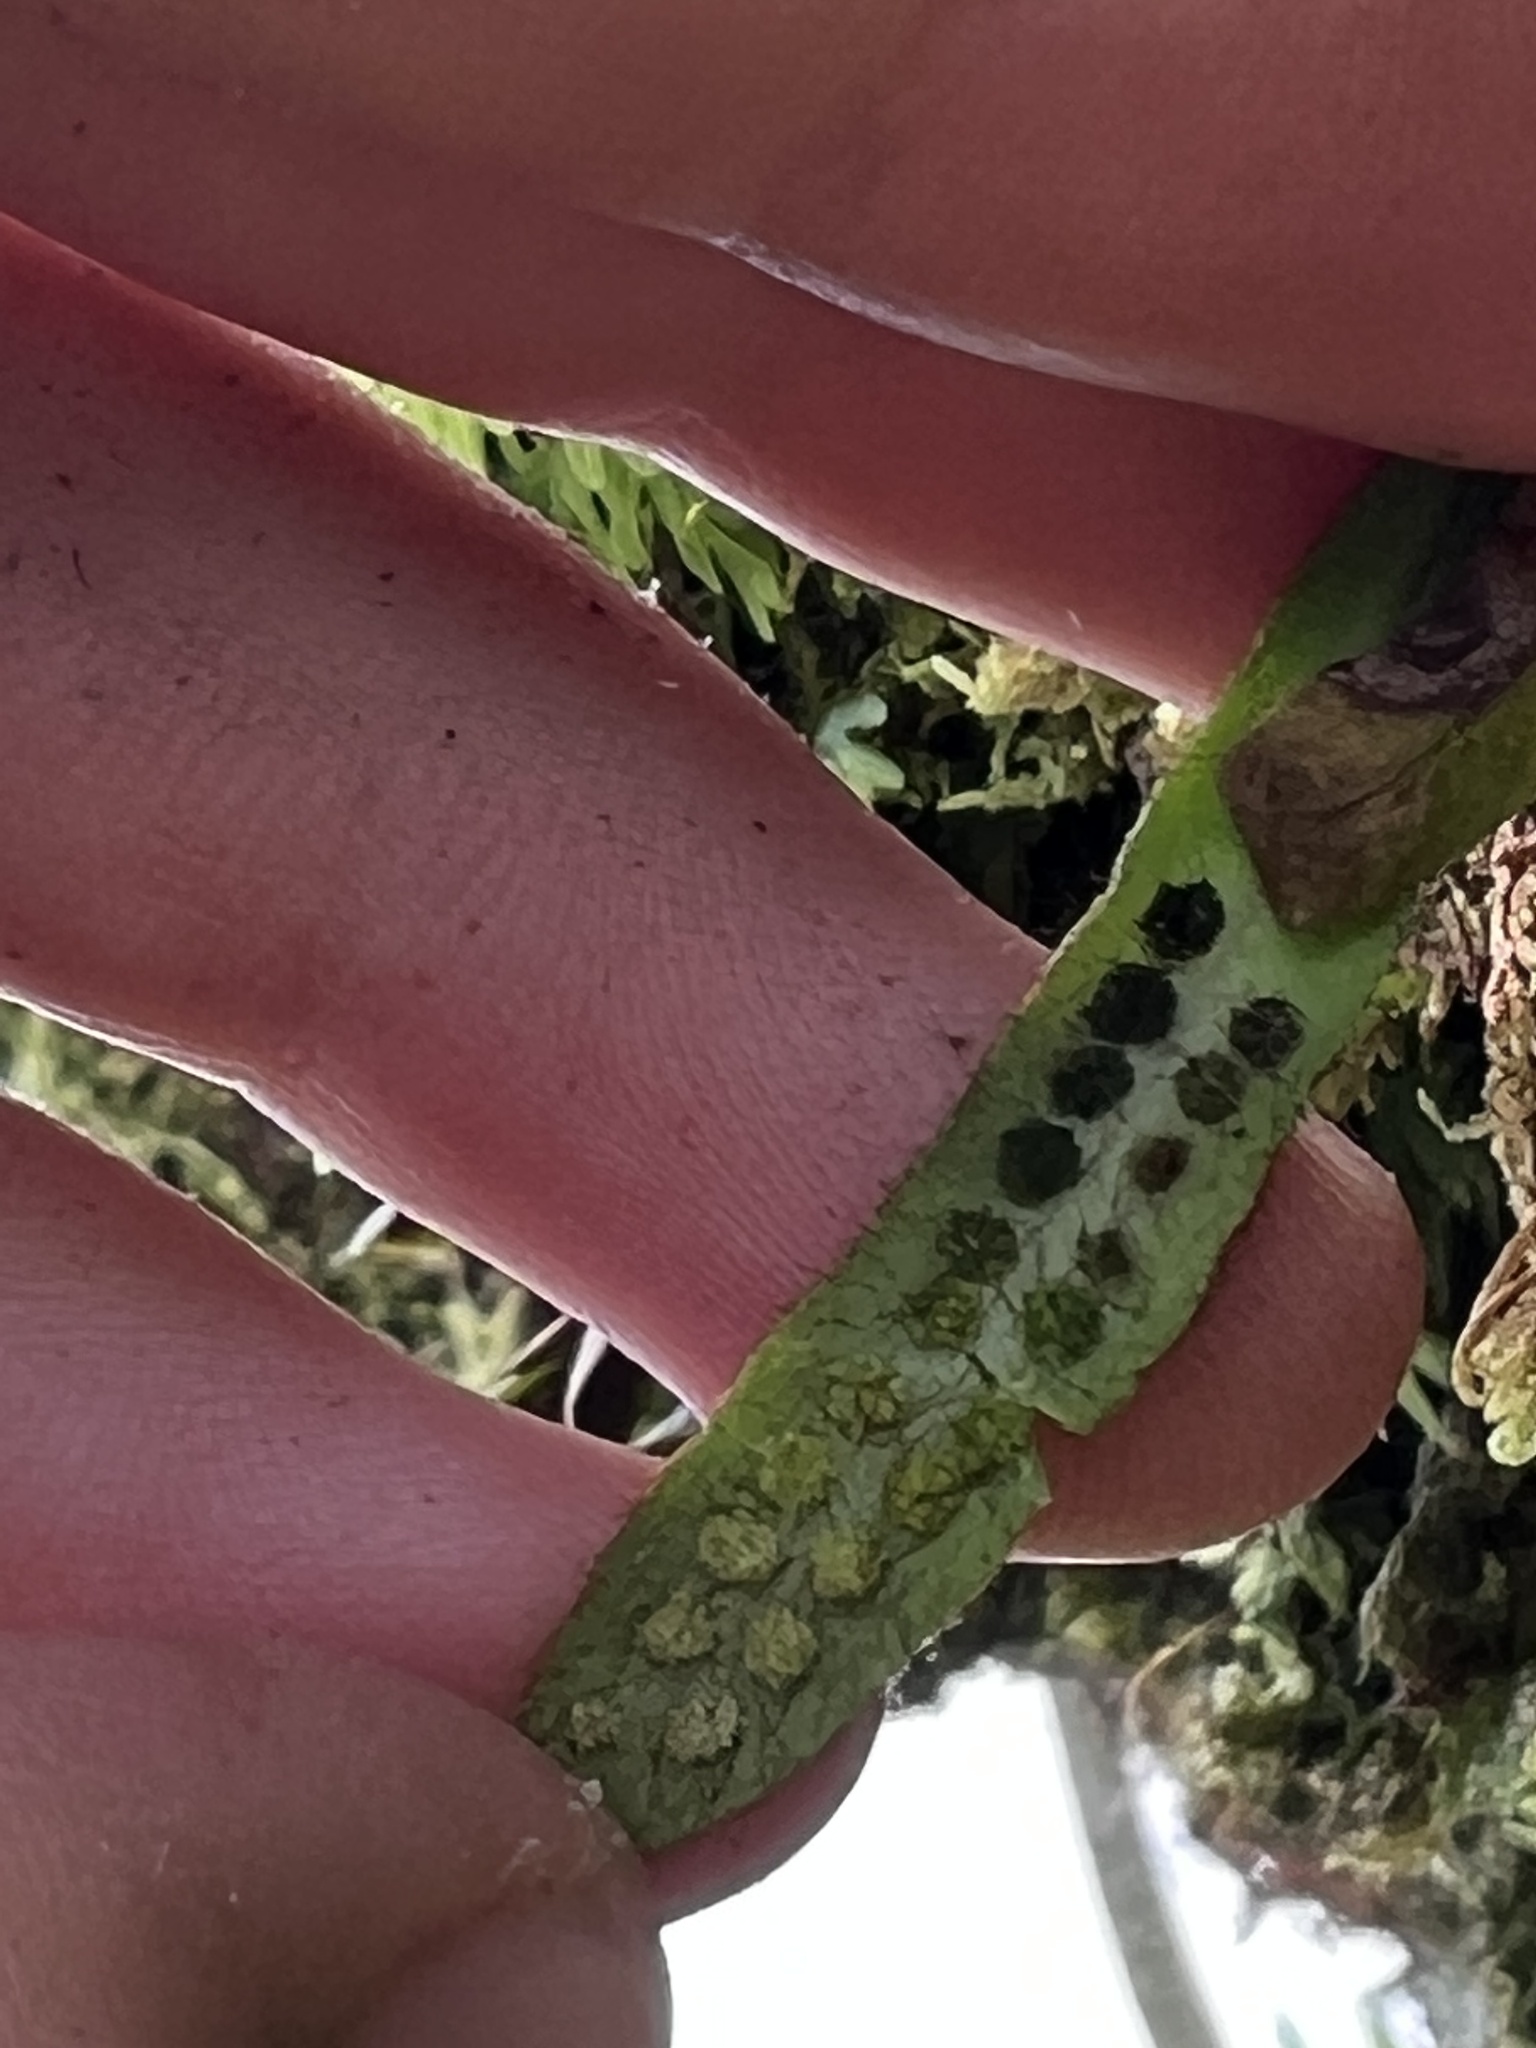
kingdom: Plantae
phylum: Tracheophyta
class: Polypodiopsida
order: Polypodiales
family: Polypodiaceae
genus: Oreogrammitis
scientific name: Oreogrammitis cheesemanii
